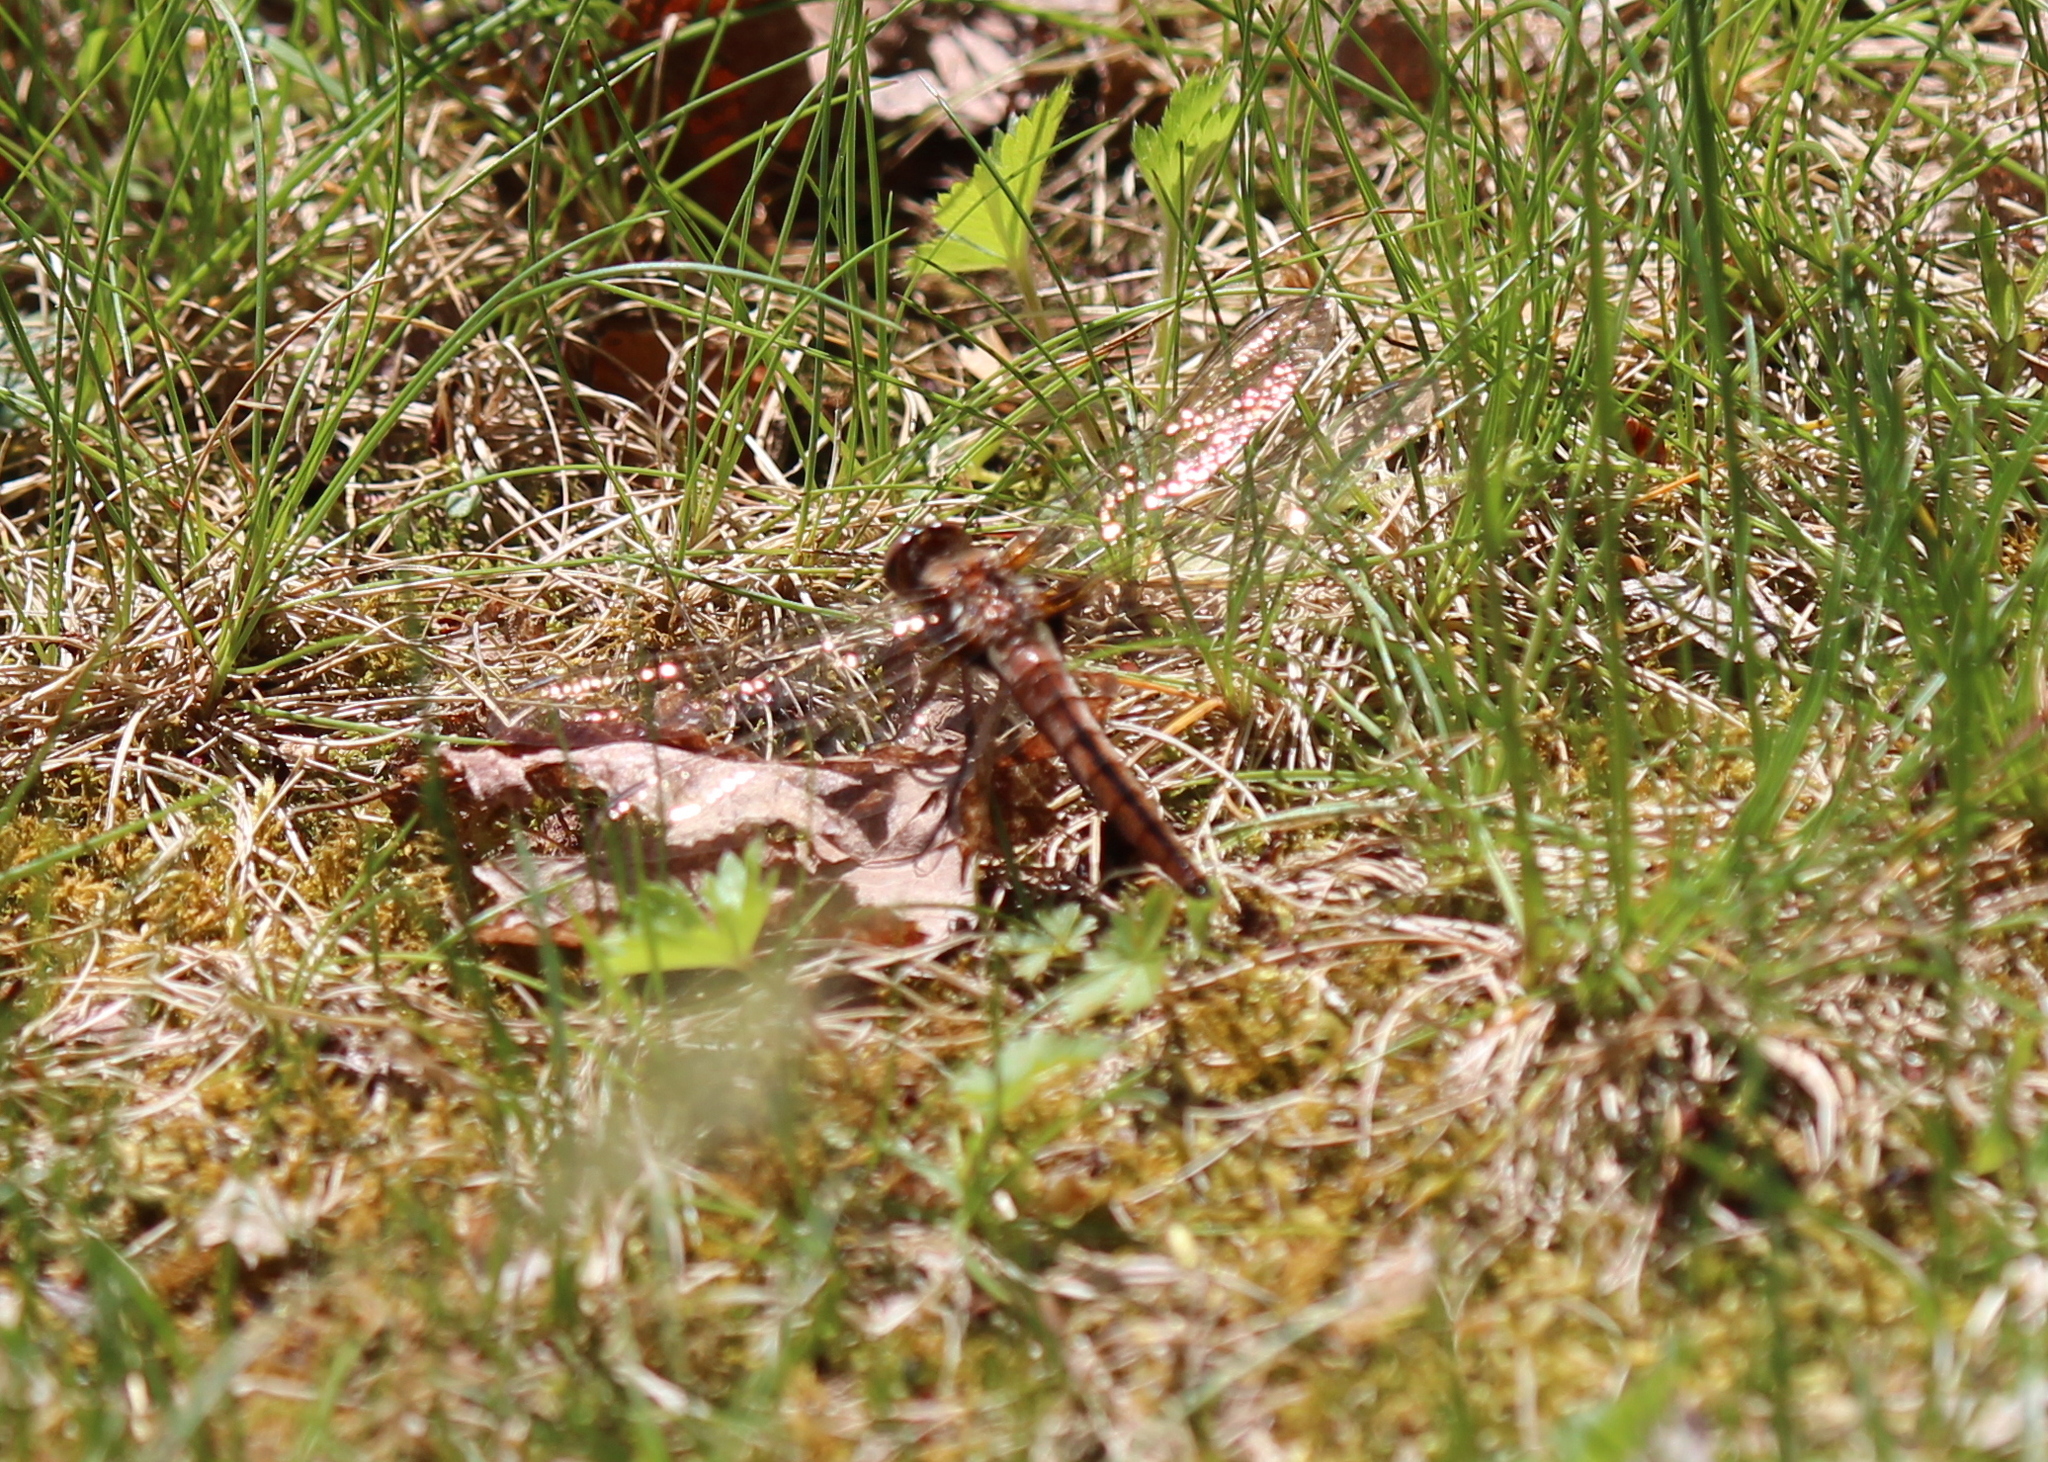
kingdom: Animalia
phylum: Arthropoda
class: Insecta
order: Odonata
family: Libellulidae
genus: Ladona
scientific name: Ladona julia
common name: Chalk-fronted corporal
